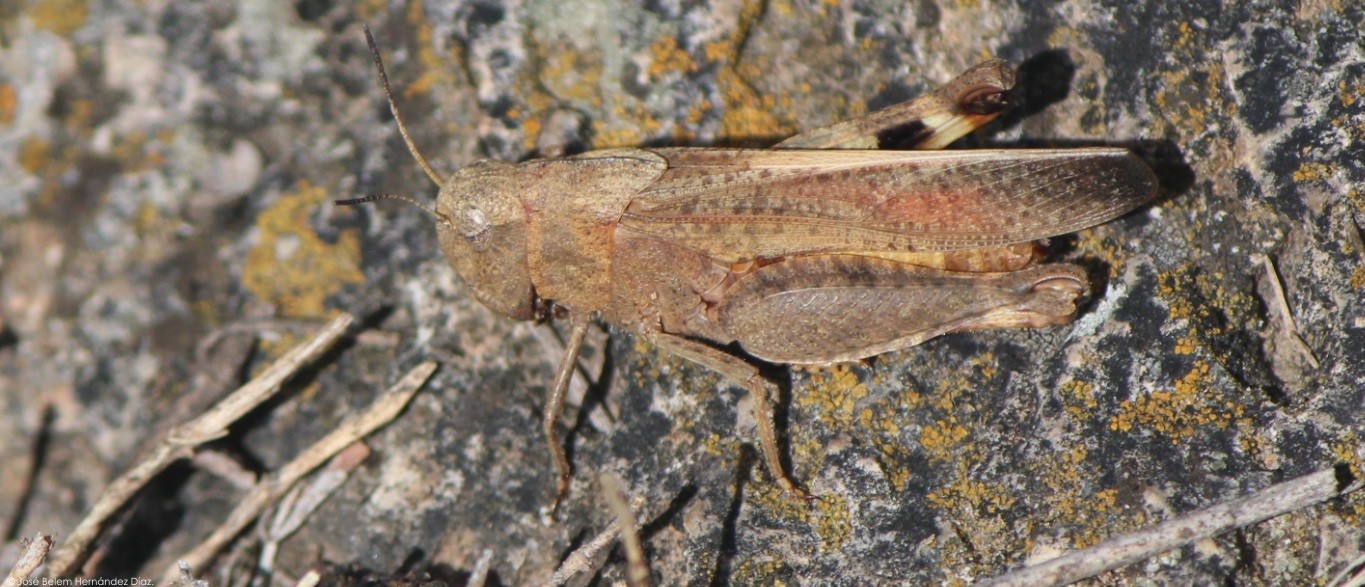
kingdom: Animalia
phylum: Arthropoda
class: Insecta
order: Orthoptera
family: Acrididae
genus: Arphia
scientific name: Arphia nietana
